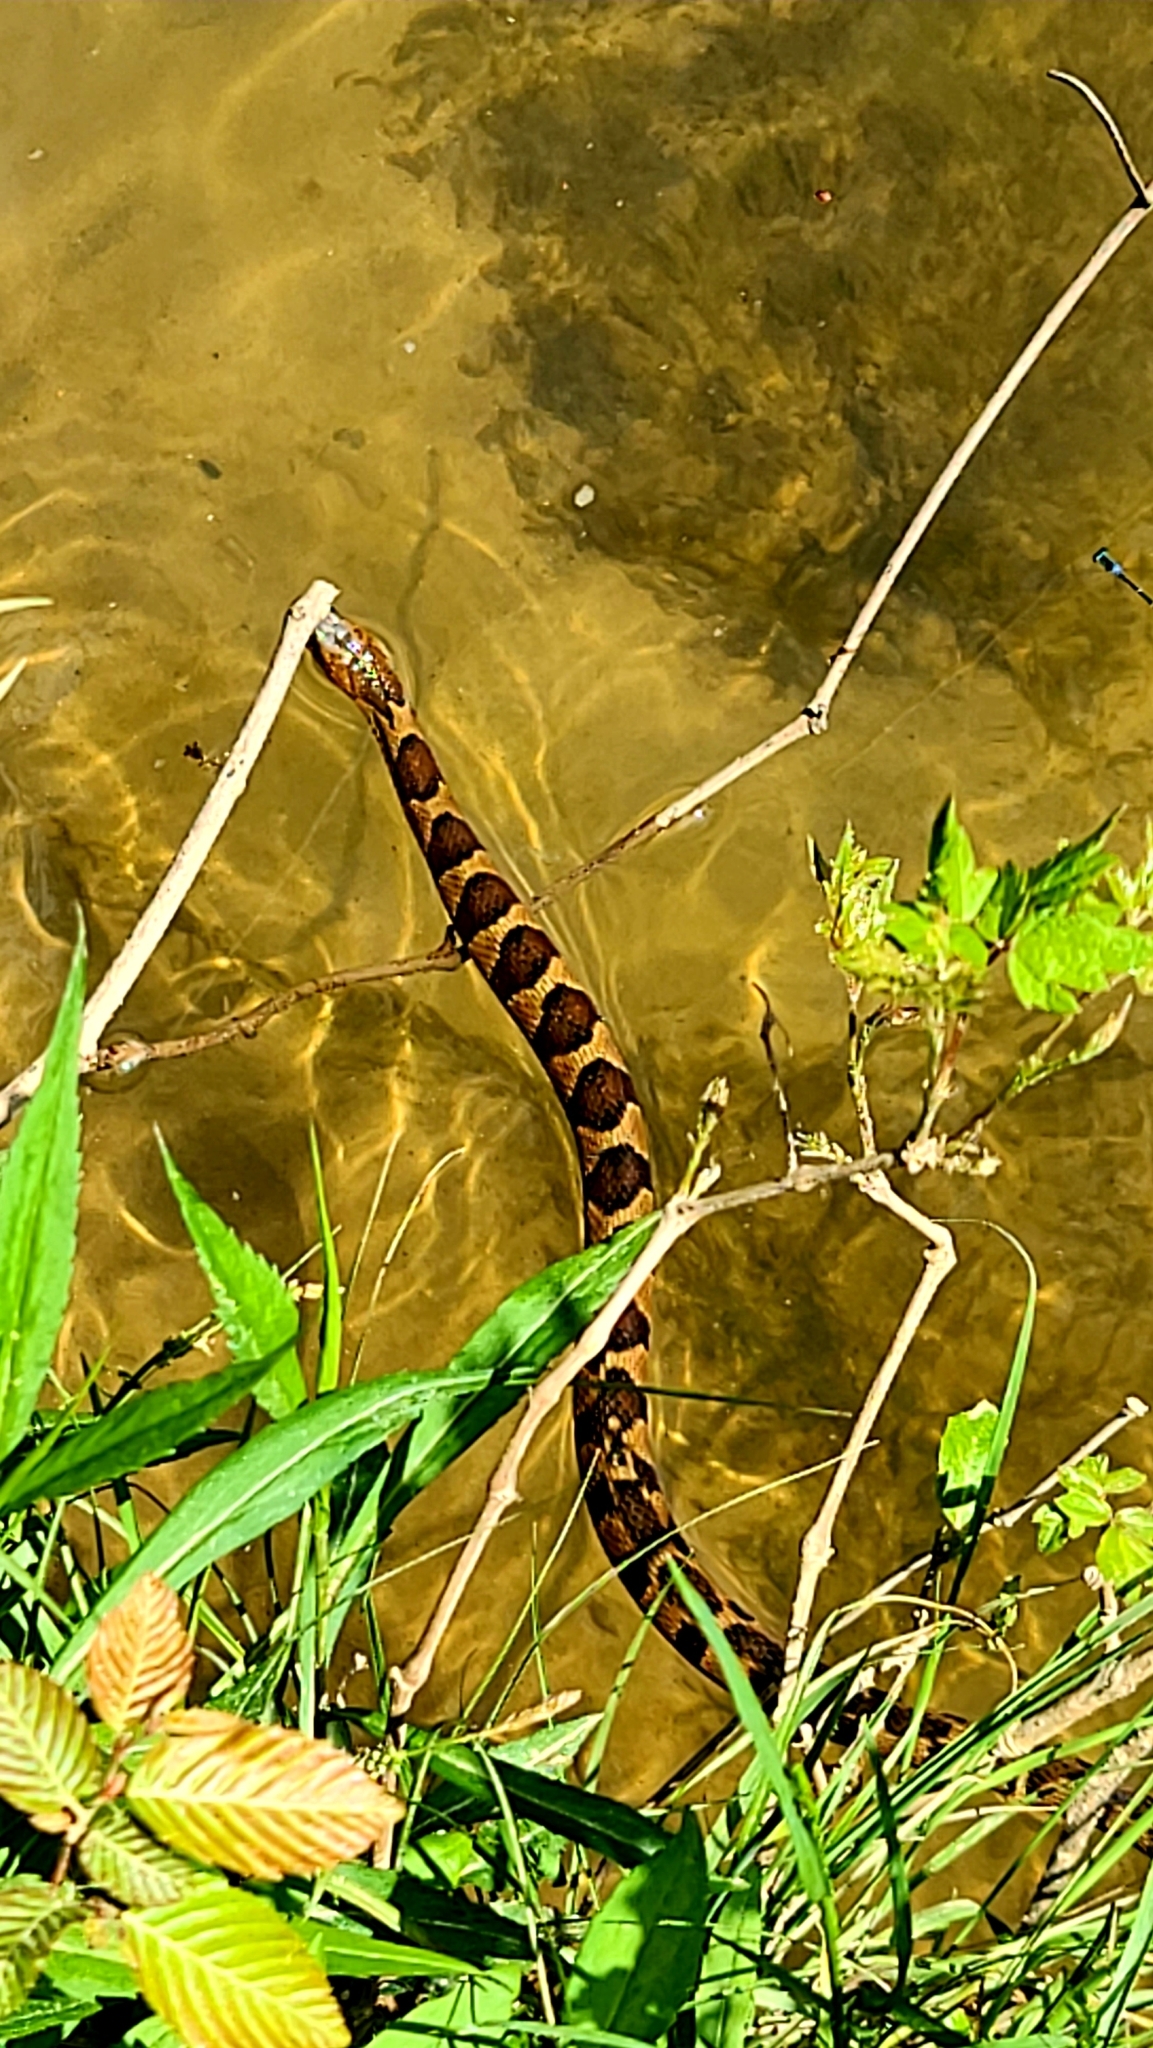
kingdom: Animalia
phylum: Chordata
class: Squamata
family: Colubridae
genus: Nerodia
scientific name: Nerodia sipedon
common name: Northern water snake
